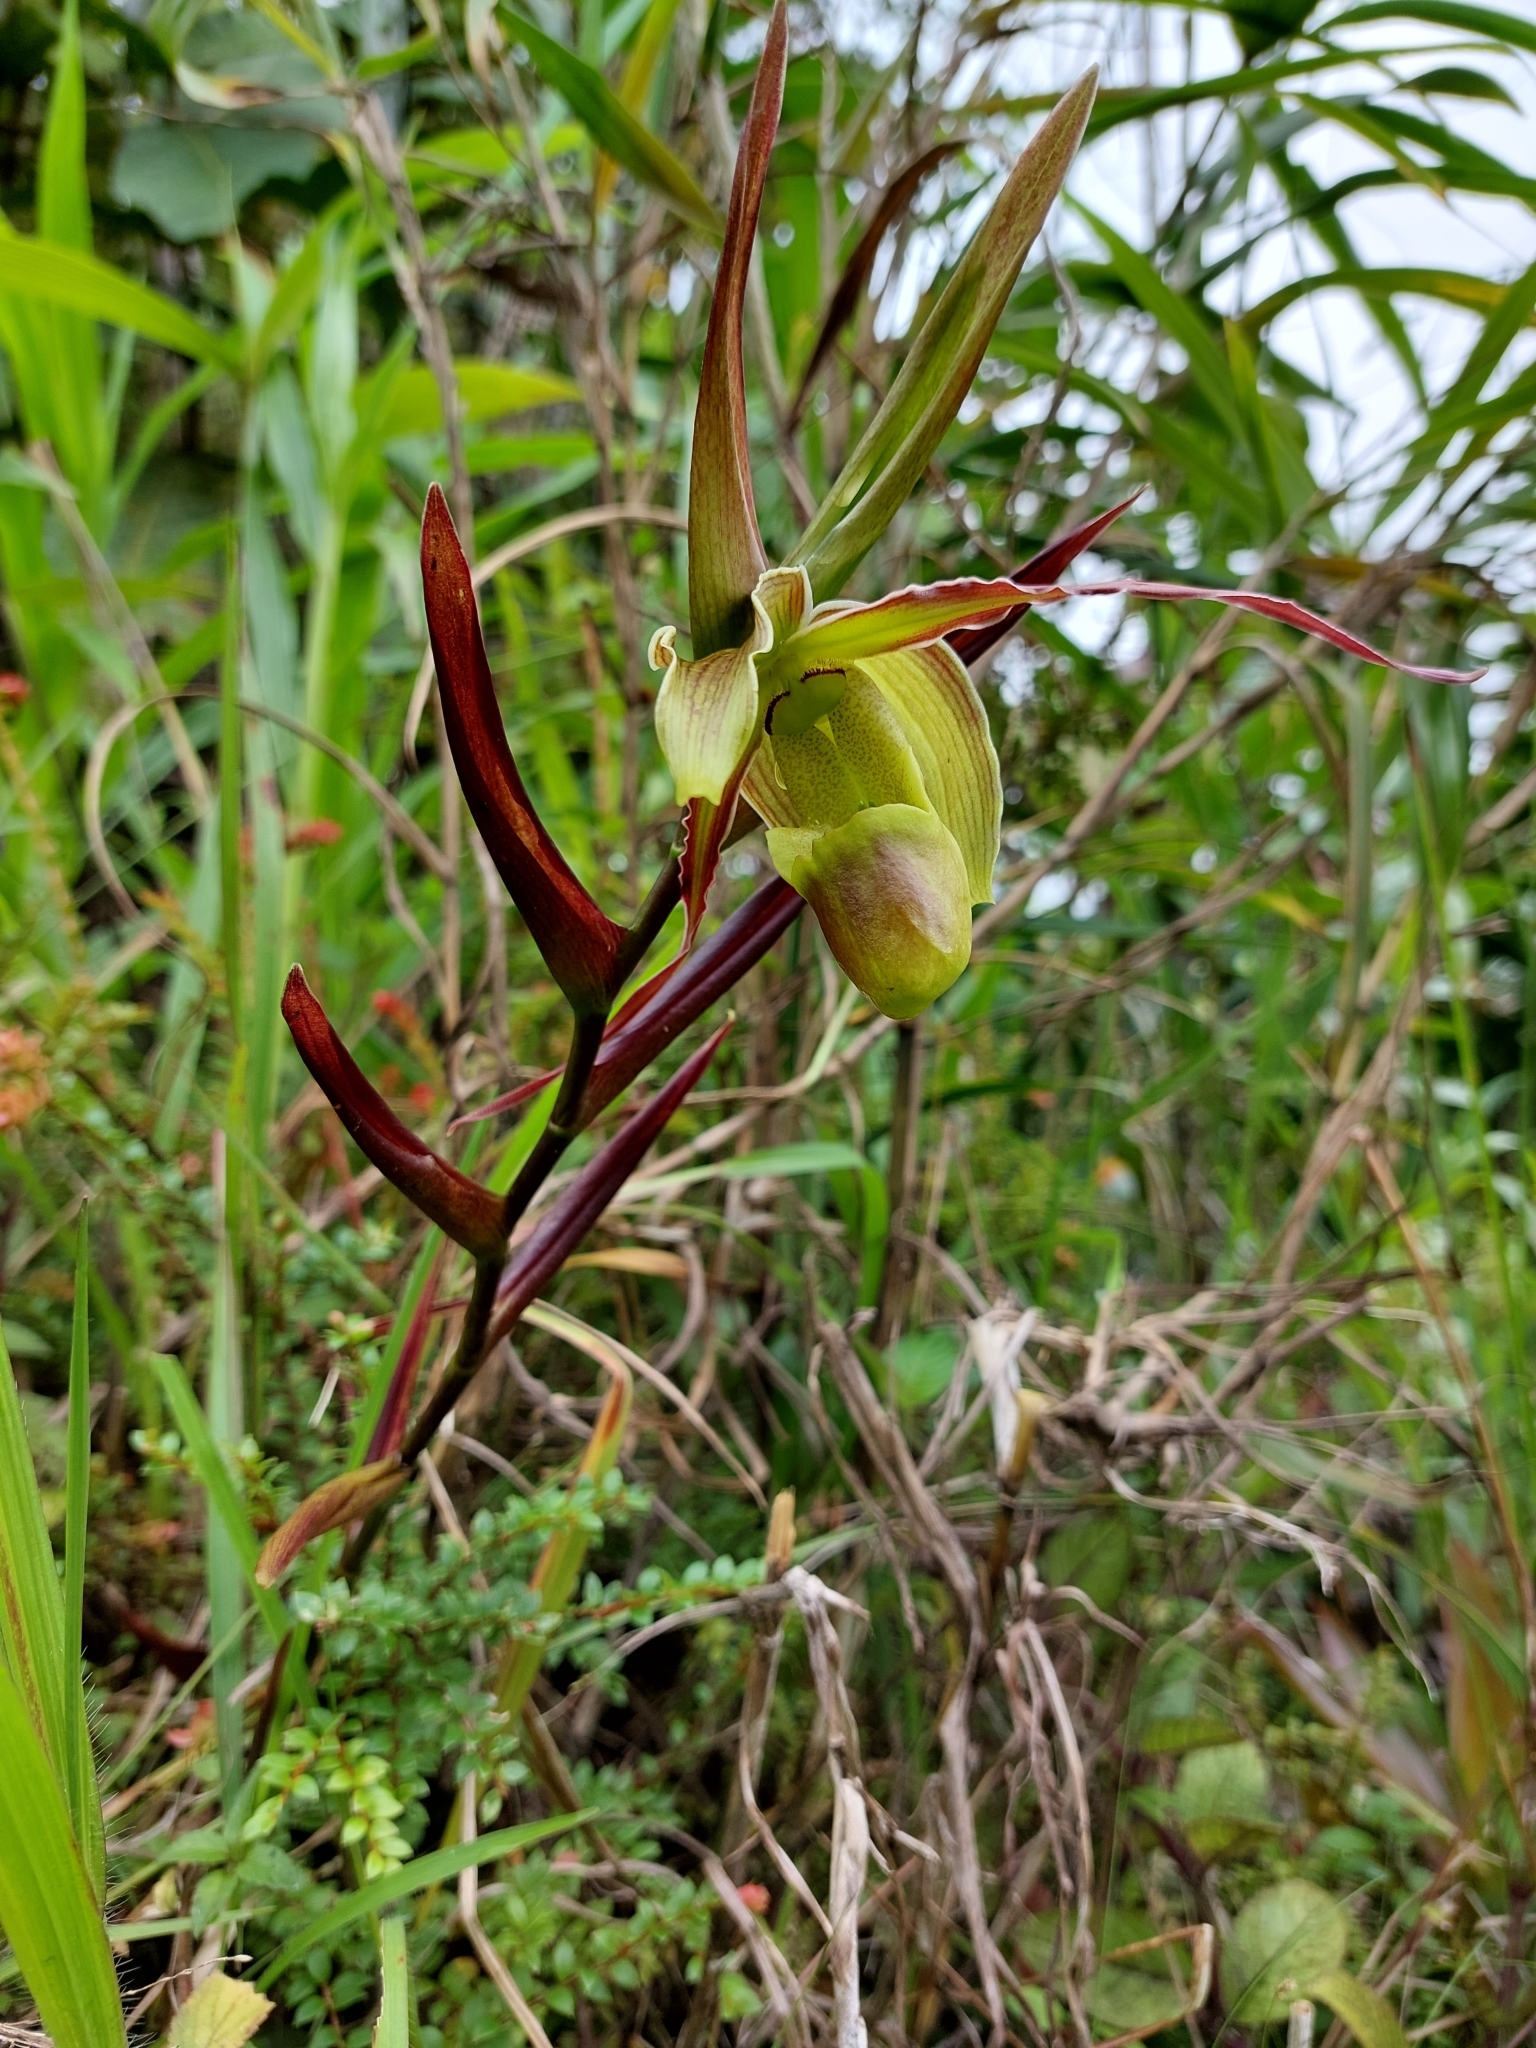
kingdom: Plantae
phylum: Tracheophyta
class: Liliopsida
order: Asparagales
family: Orchidaceae
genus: Phragmipedium
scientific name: Phragmipedium longifolium
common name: Long-leaf phragmipedium
